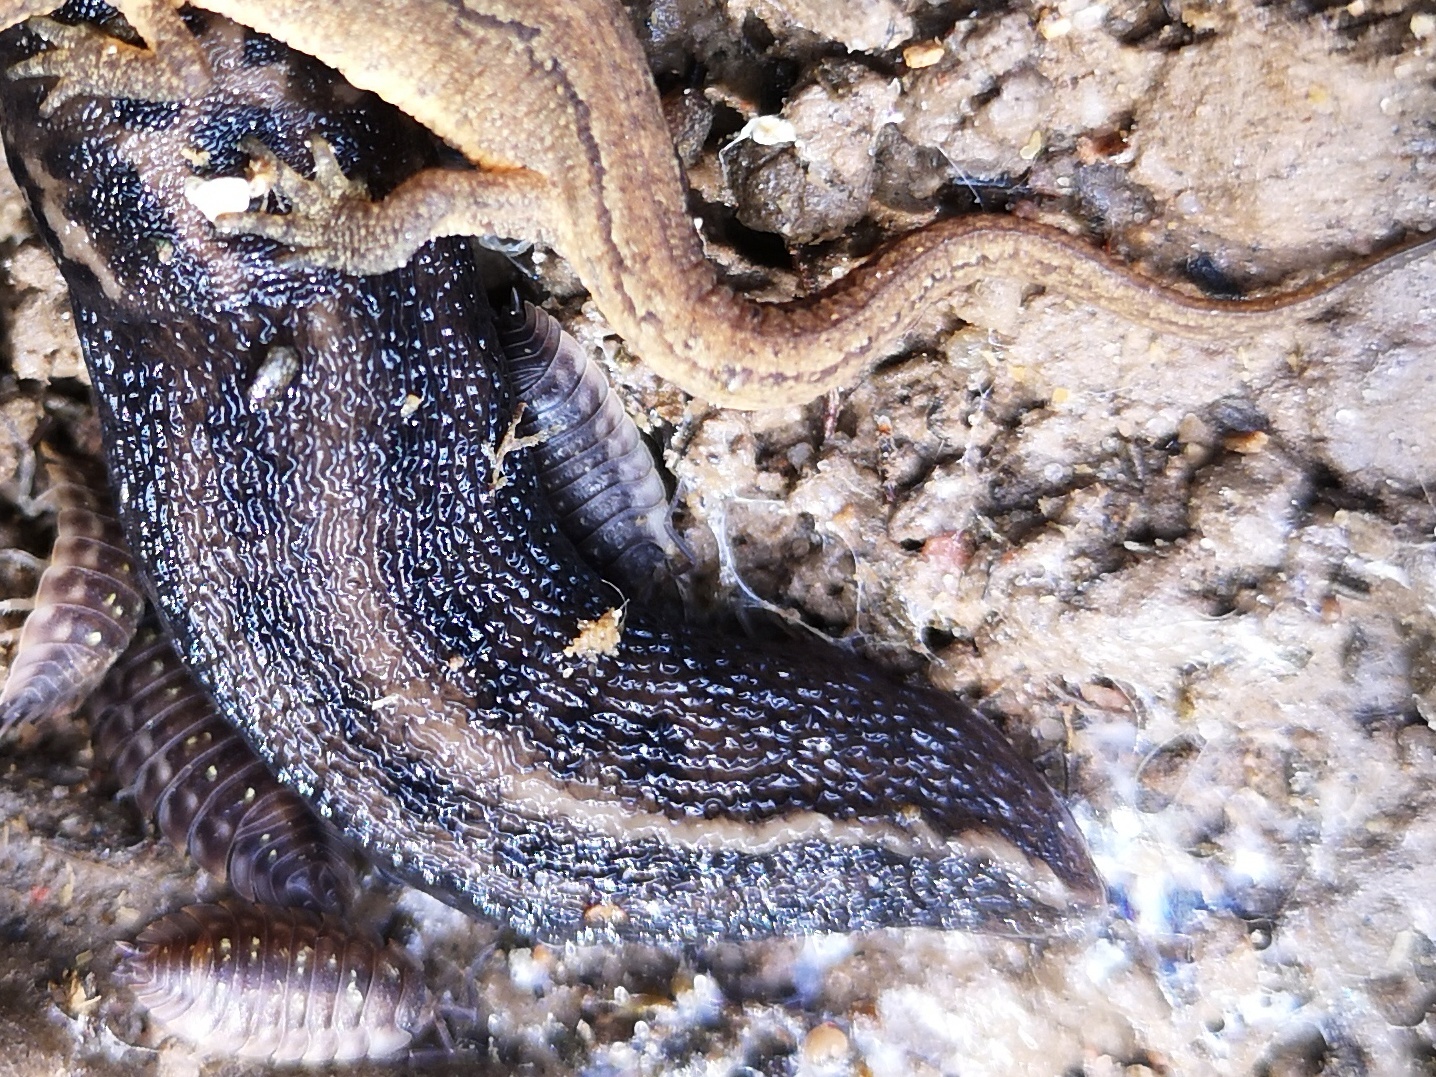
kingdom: Animalia
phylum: Mollusca
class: Gastropoda
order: Stylommatophora
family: Limacidae
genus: Limax
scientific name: Limax maximus
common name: Great grey slug
